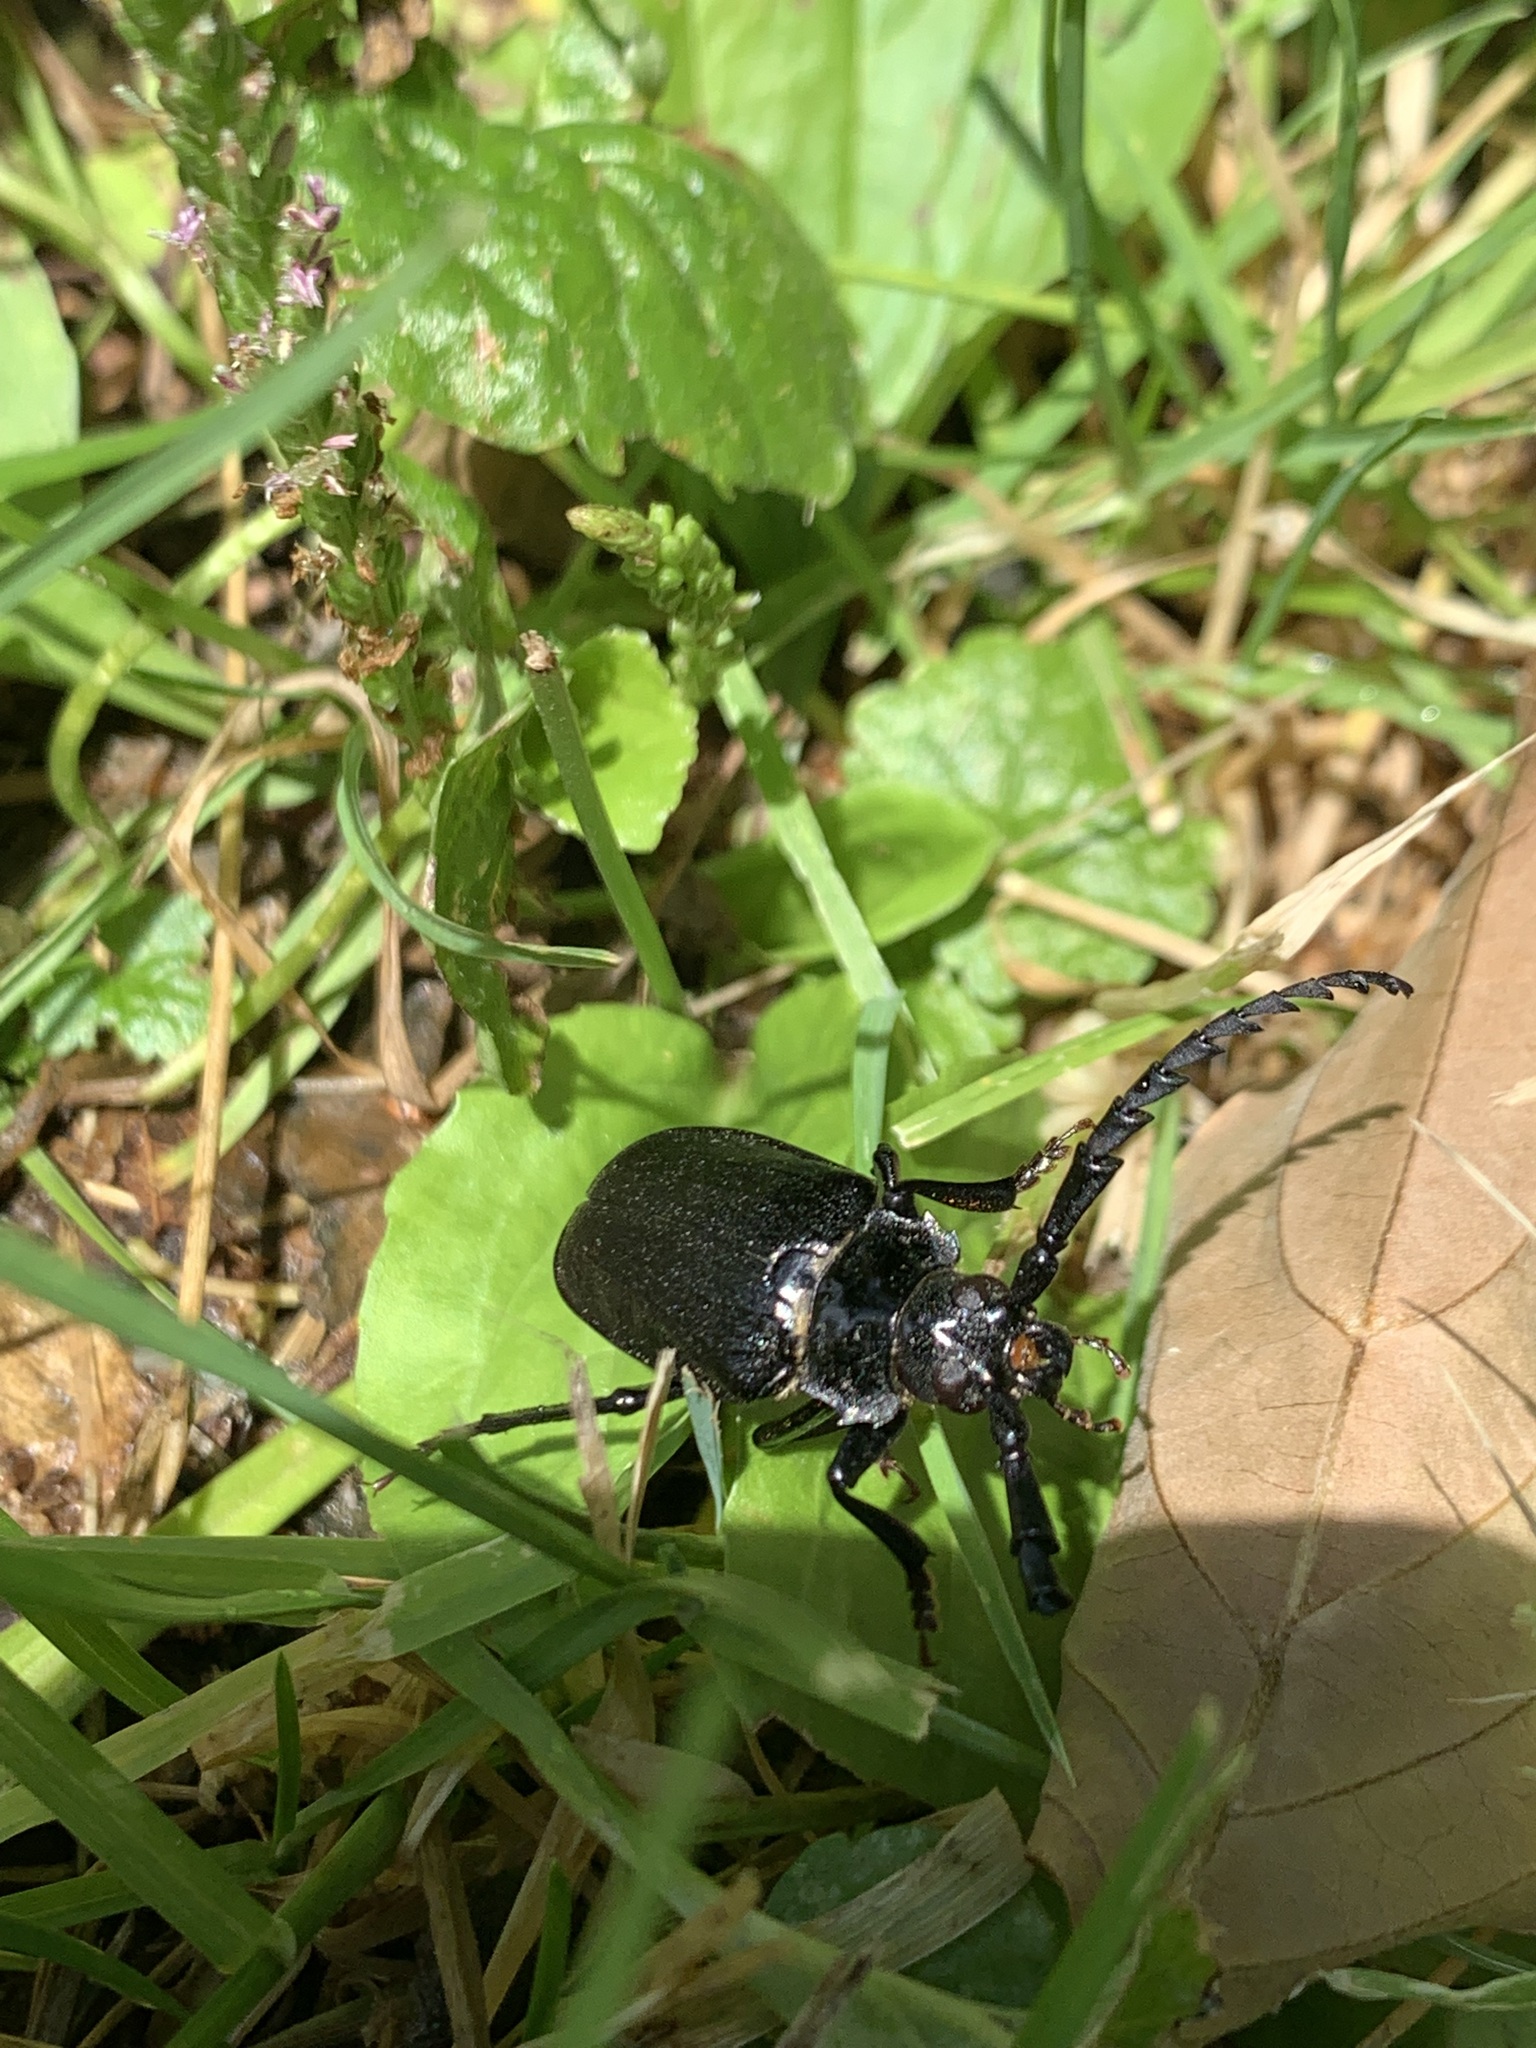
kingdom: Animalia
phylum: Arthropoda
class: Insecta
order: Coleoptera
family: Cerambycidae
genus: Prionus
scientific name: Prionus laticollis
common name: Broad necked prionus
